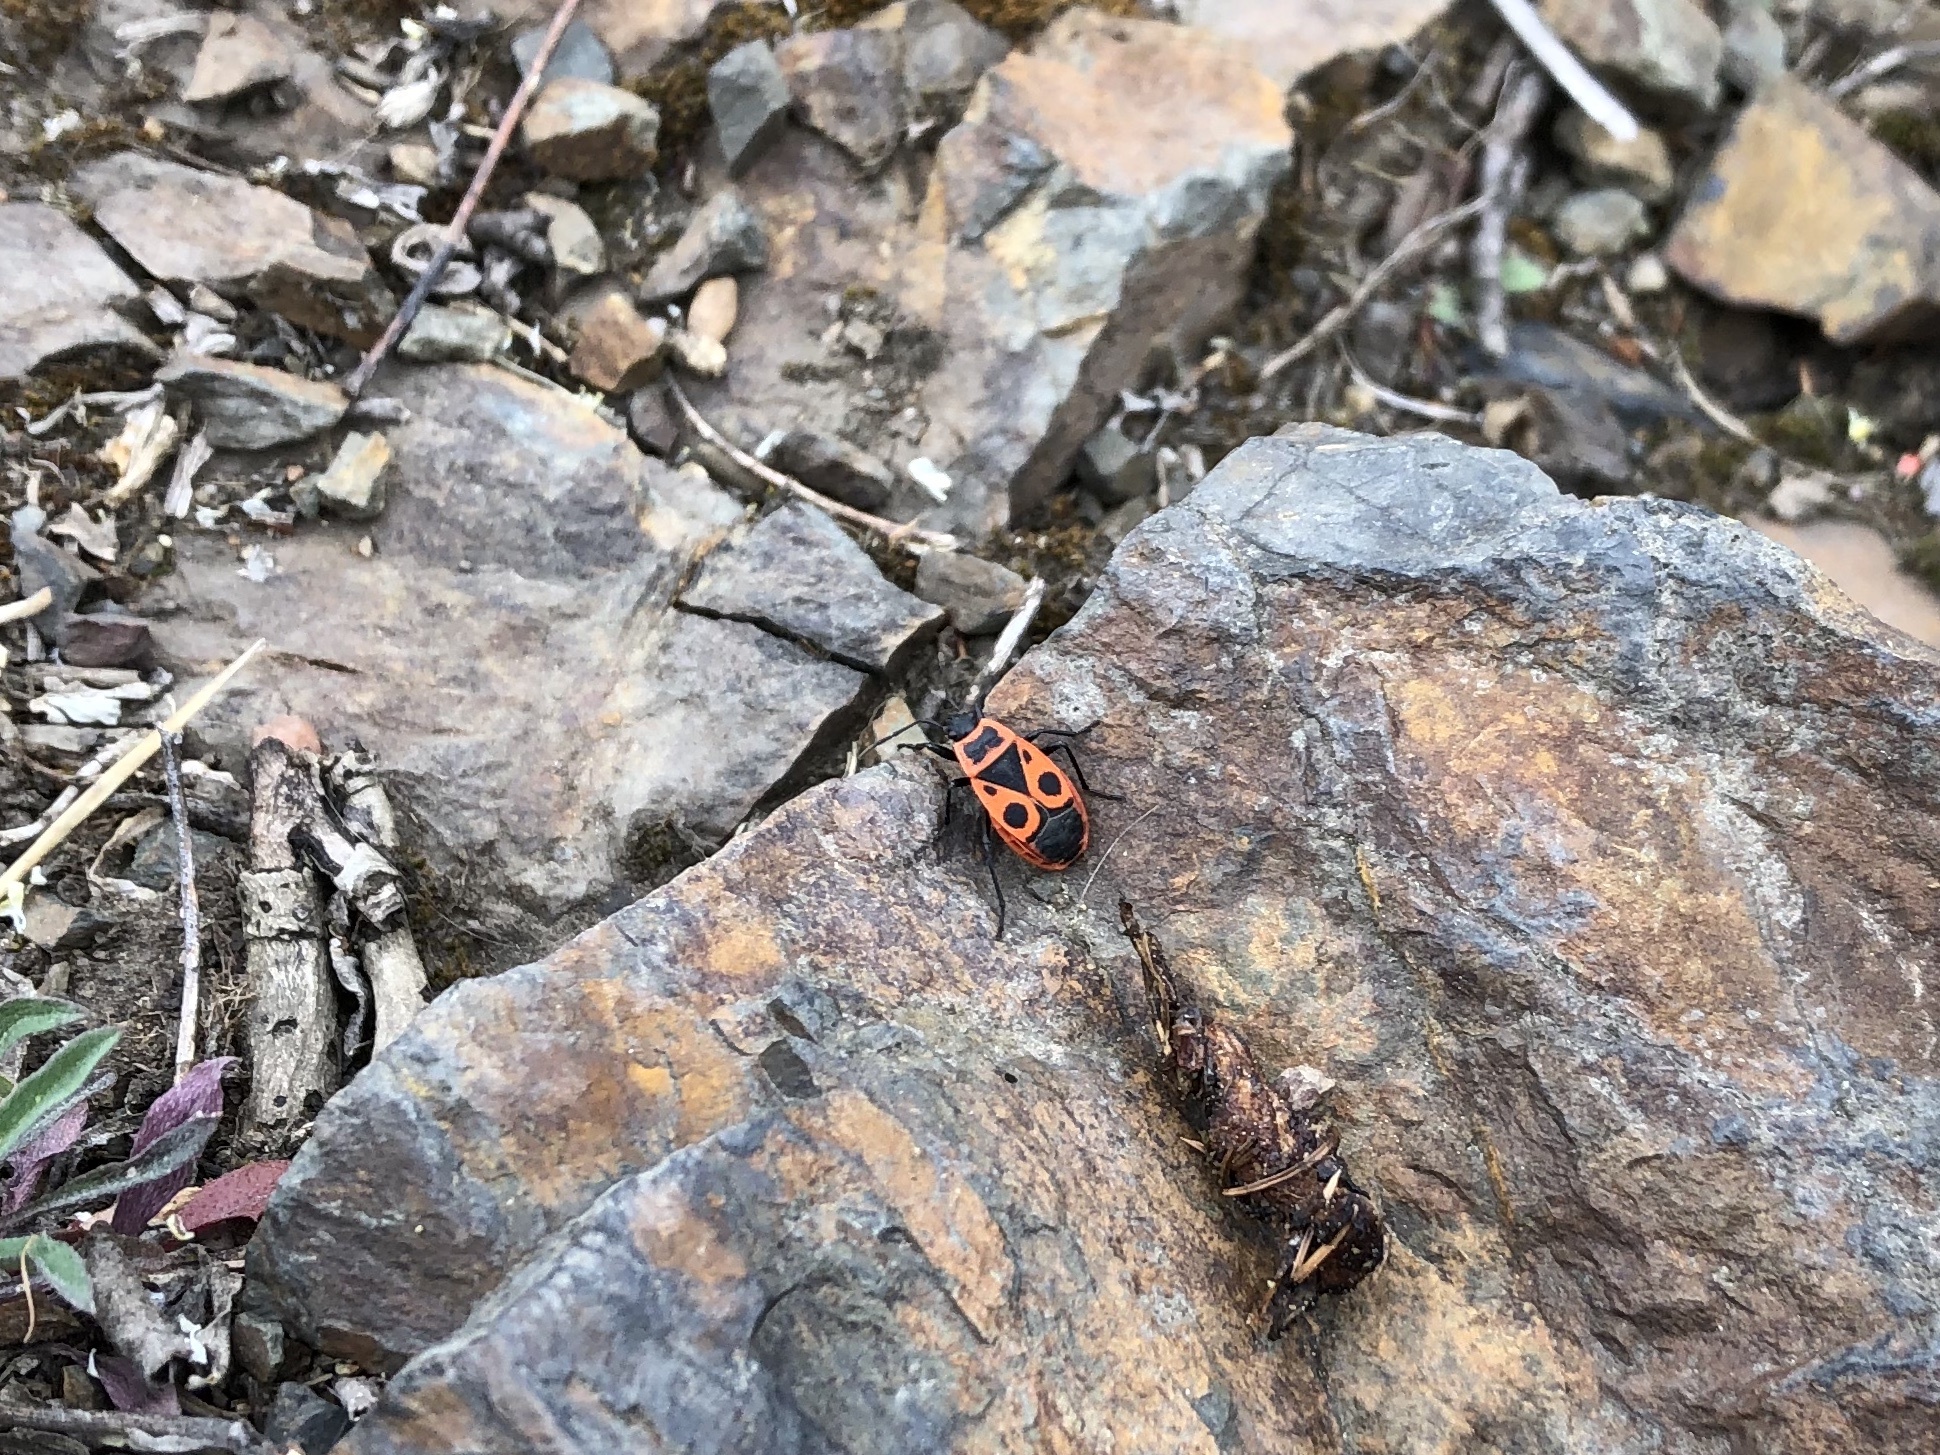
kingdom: Animalia
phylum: Arthropoda
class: Insecta
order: Hemiptera
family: Pyrrhocoridae
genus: Pyrrhocoris
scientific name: Pyrrhocoris apterus
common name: Firebug
